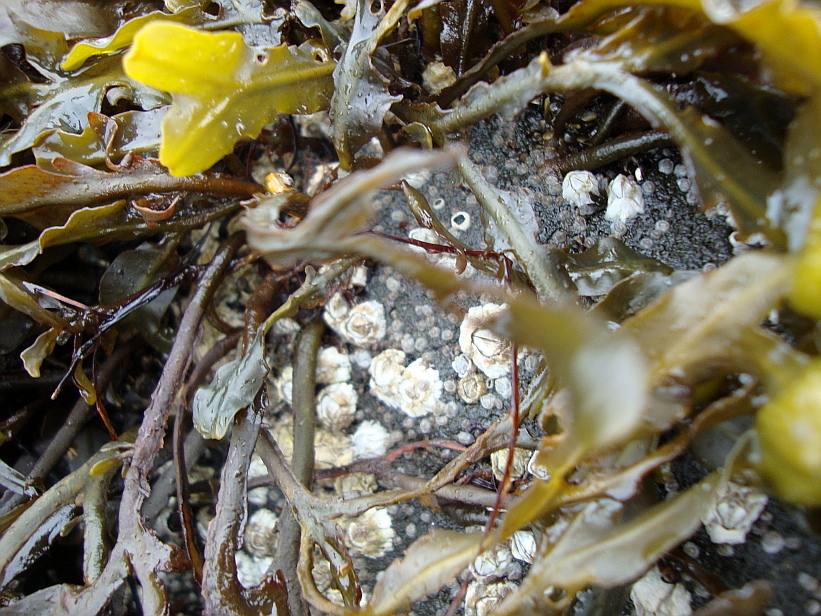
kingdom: Animalia
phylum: Arthropoda
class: Maxillopoda
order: Sessilia
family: Archaeobalanidae
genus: Semibalanus
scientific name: Semibalanus balanoides
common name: Acorn barnacle
